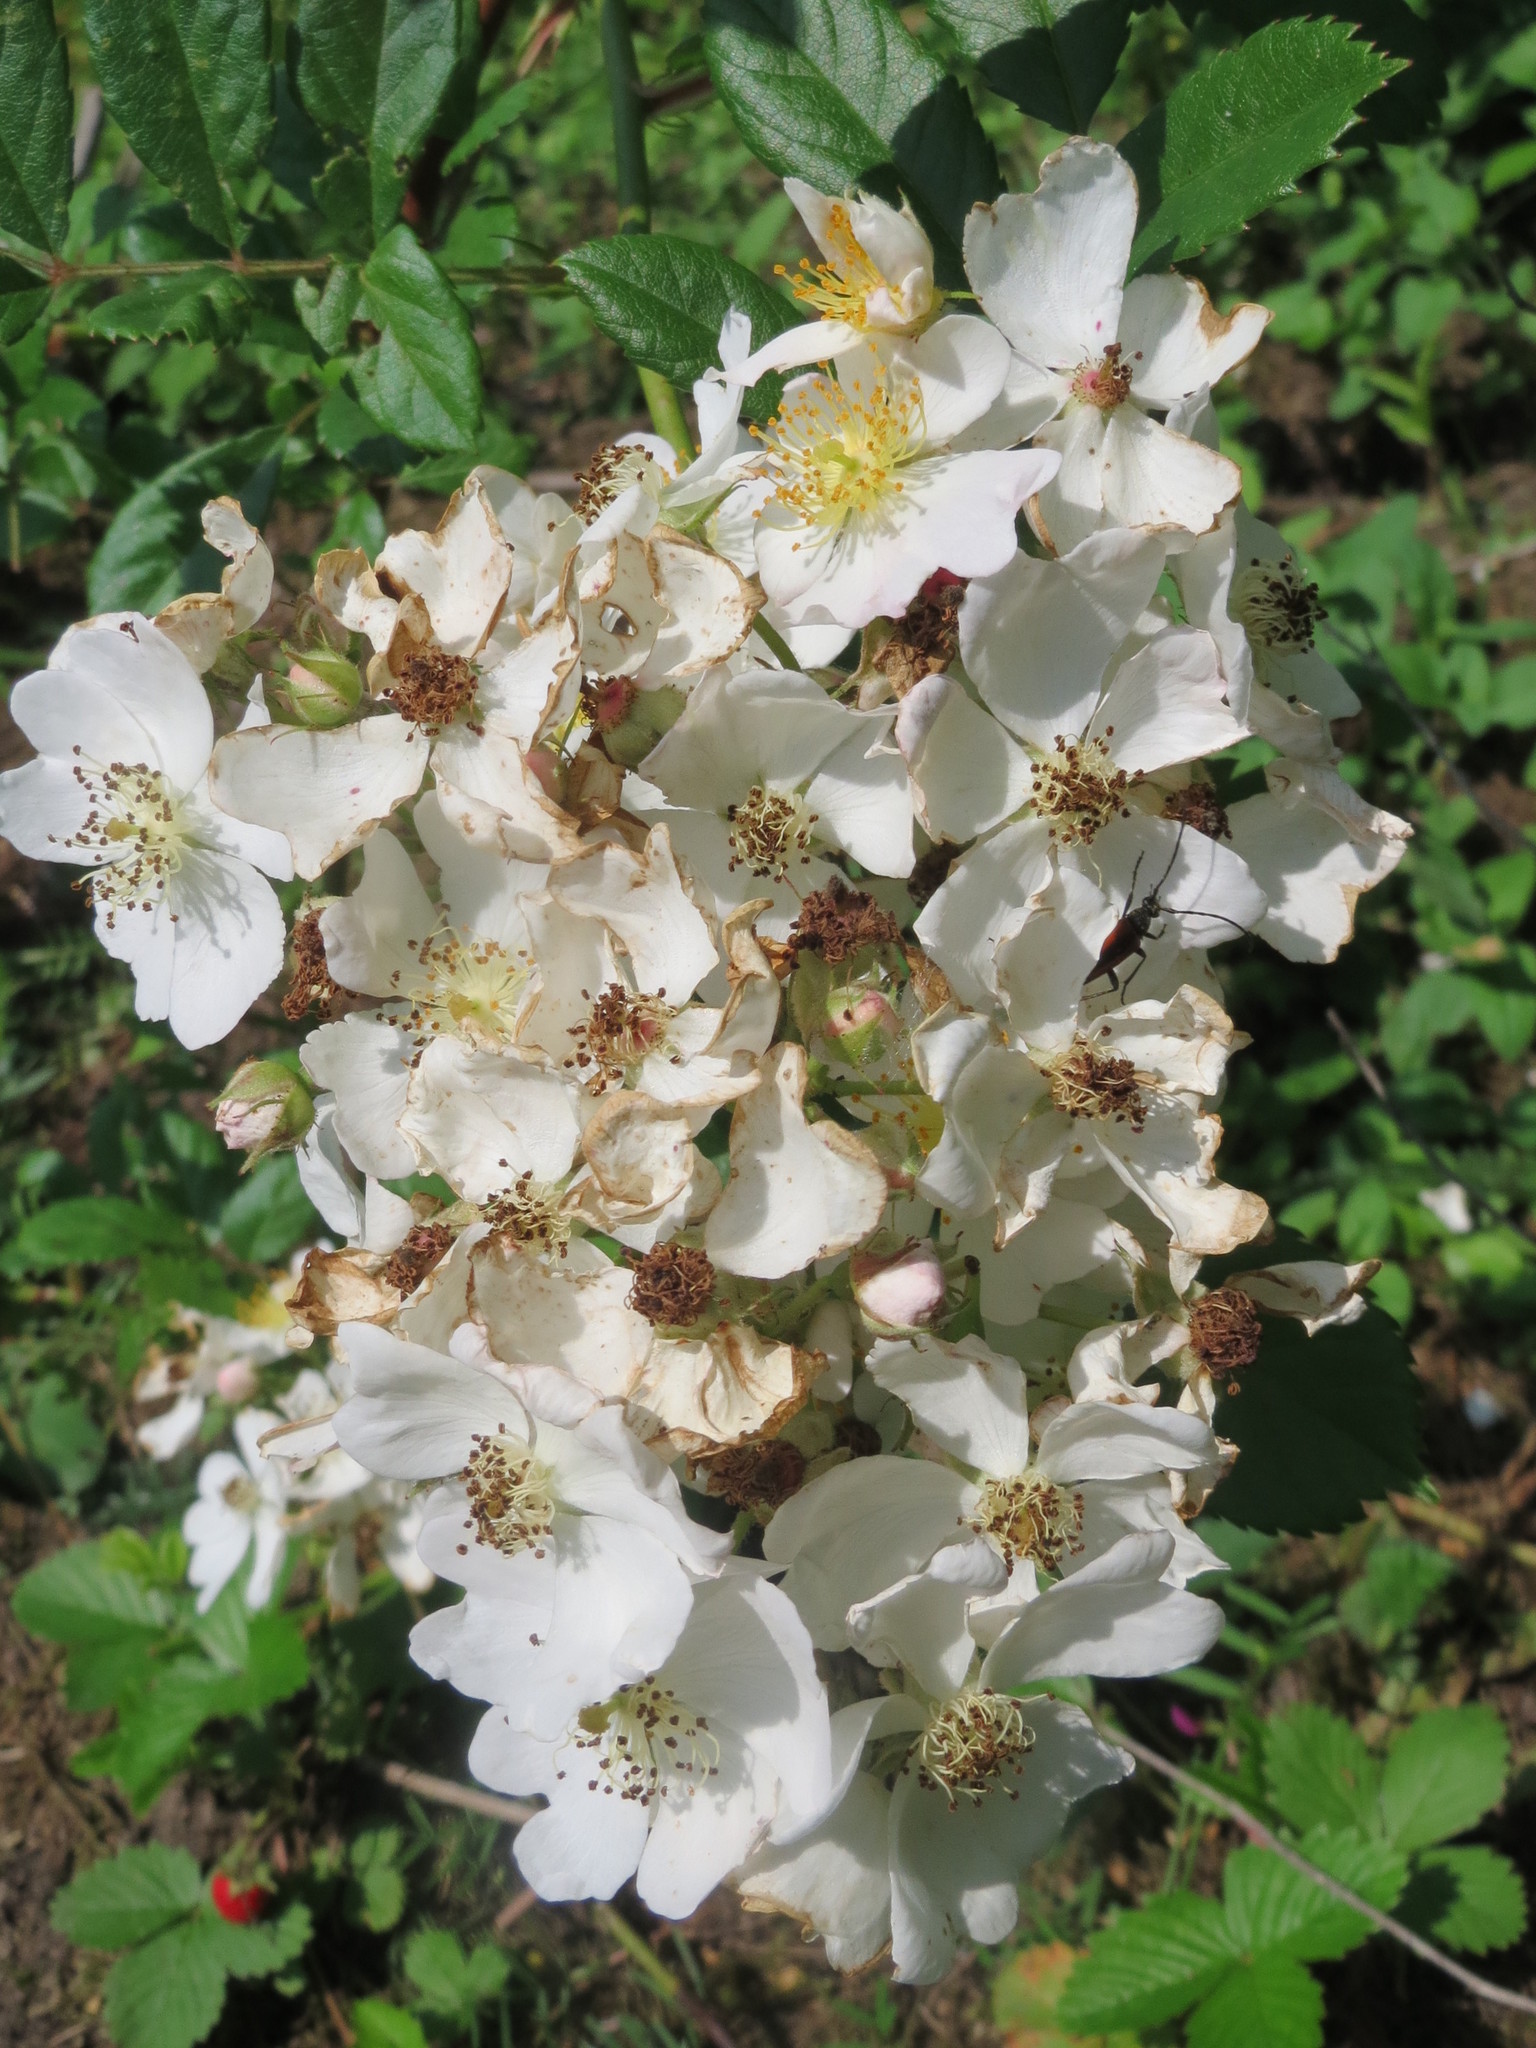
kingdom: Plantae
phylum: Tracheophyta
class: Magnoliopsida
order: Rosales
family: Rosaceae
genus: Rosa
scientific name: Rosa multiflora
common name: Multiflora rose
